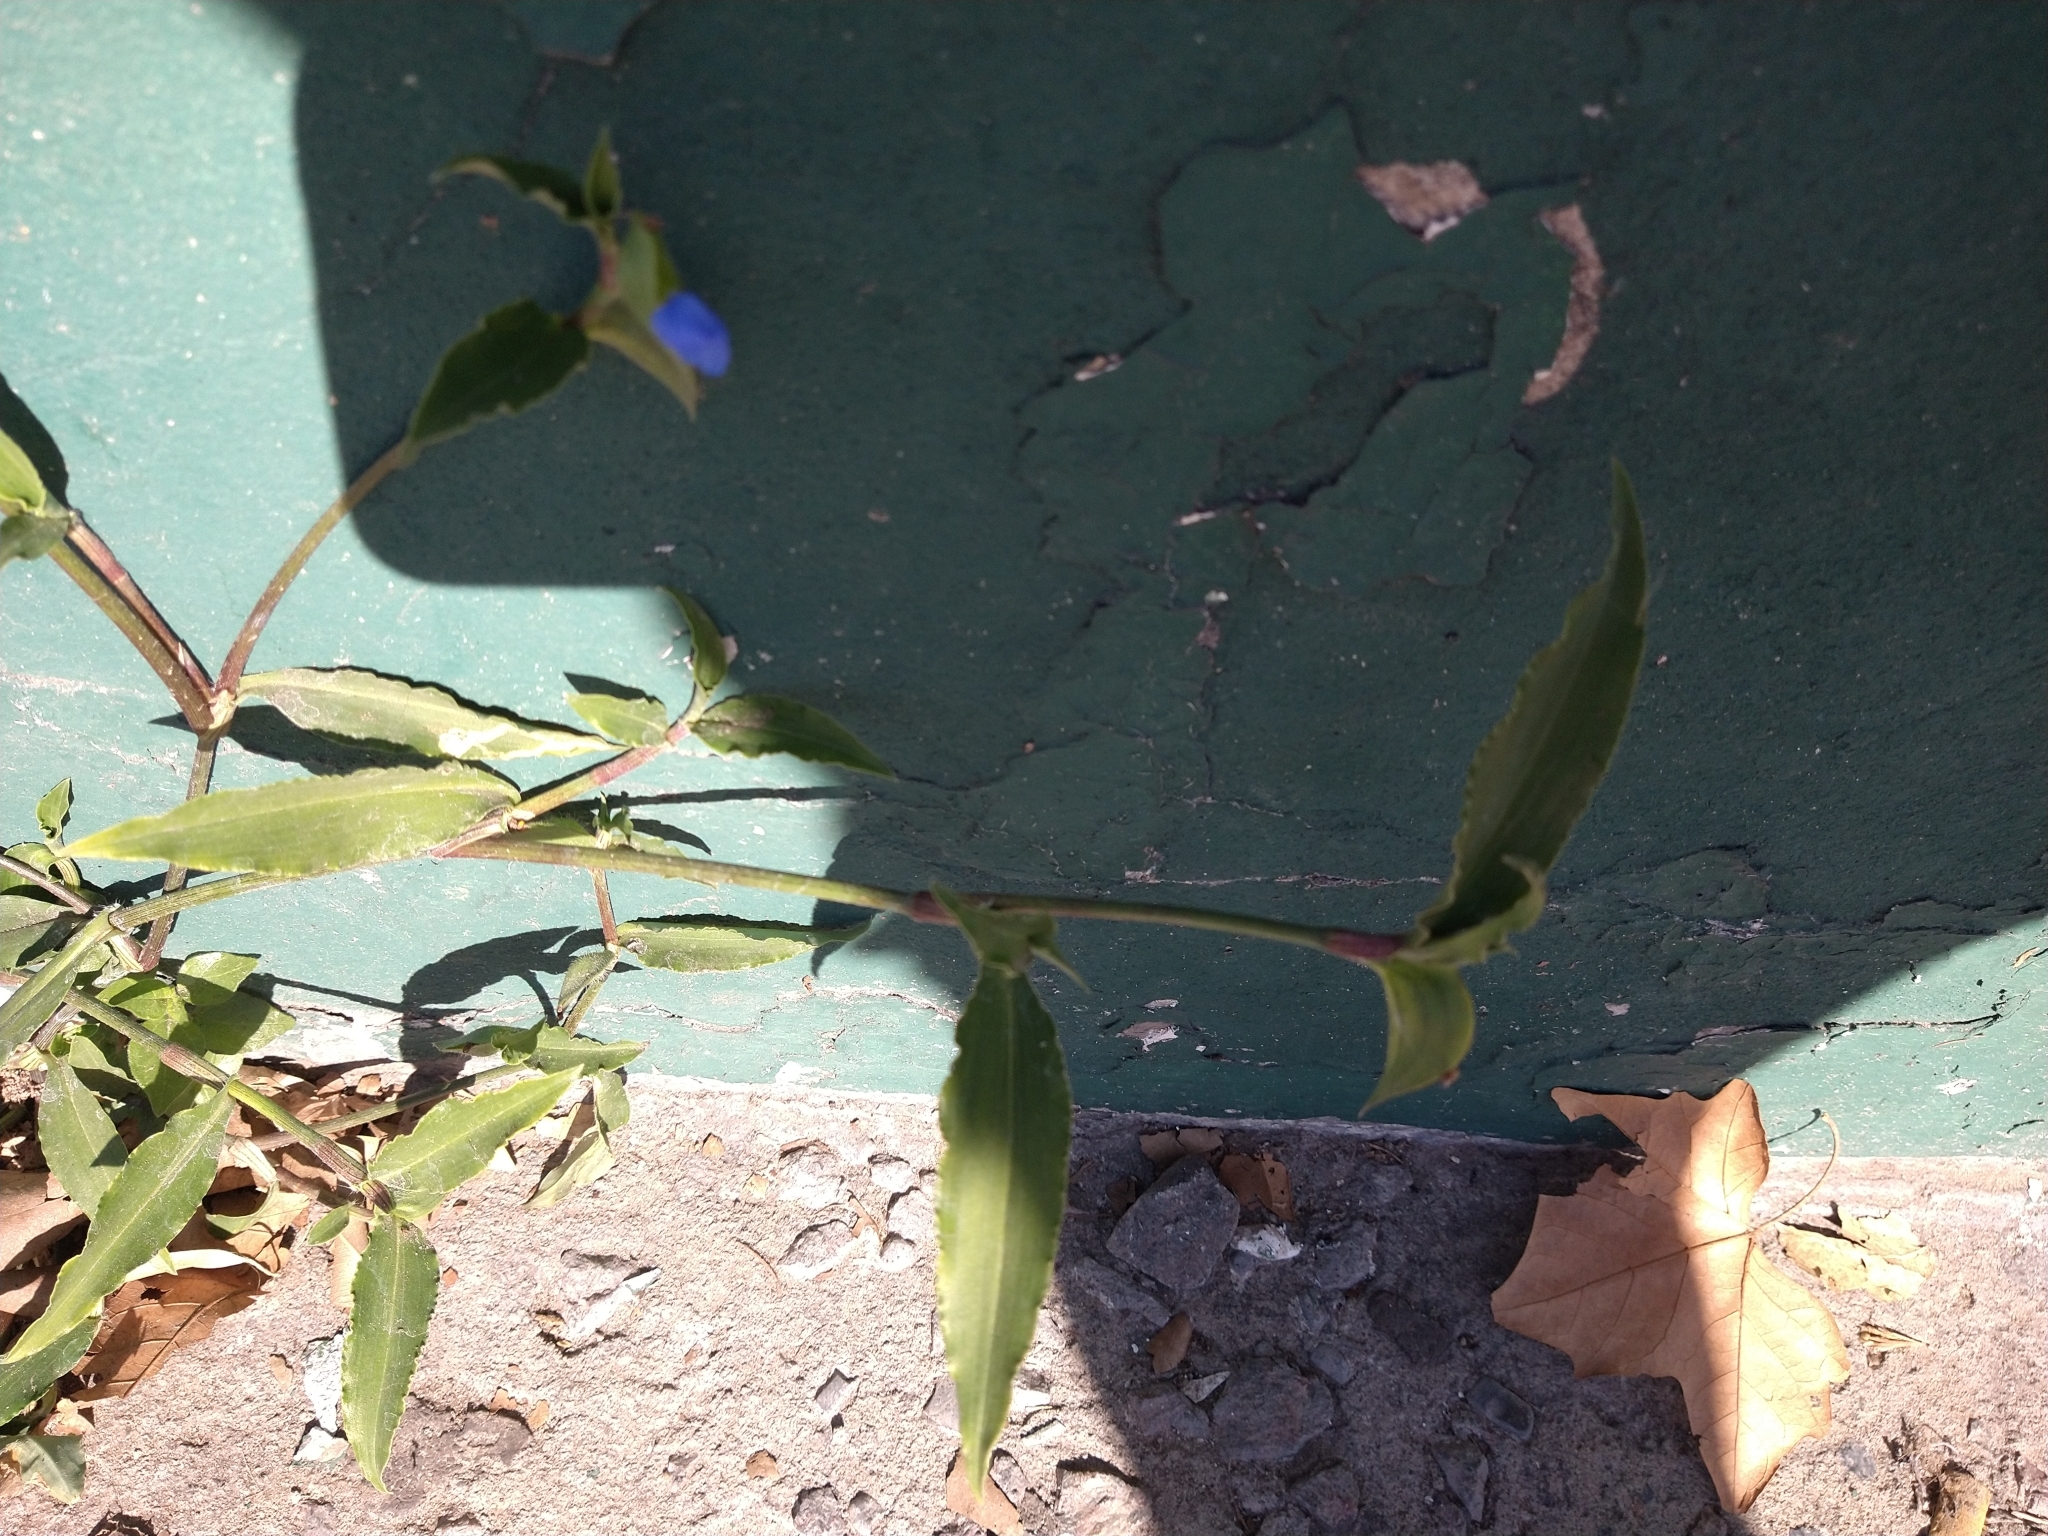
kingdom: Plantae
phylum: Tracheophyta
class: Liliopsida
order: Commelinales
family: Commelinaceae
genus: Commelina
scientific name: Commelina erecta
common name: Blousel blommetjie
